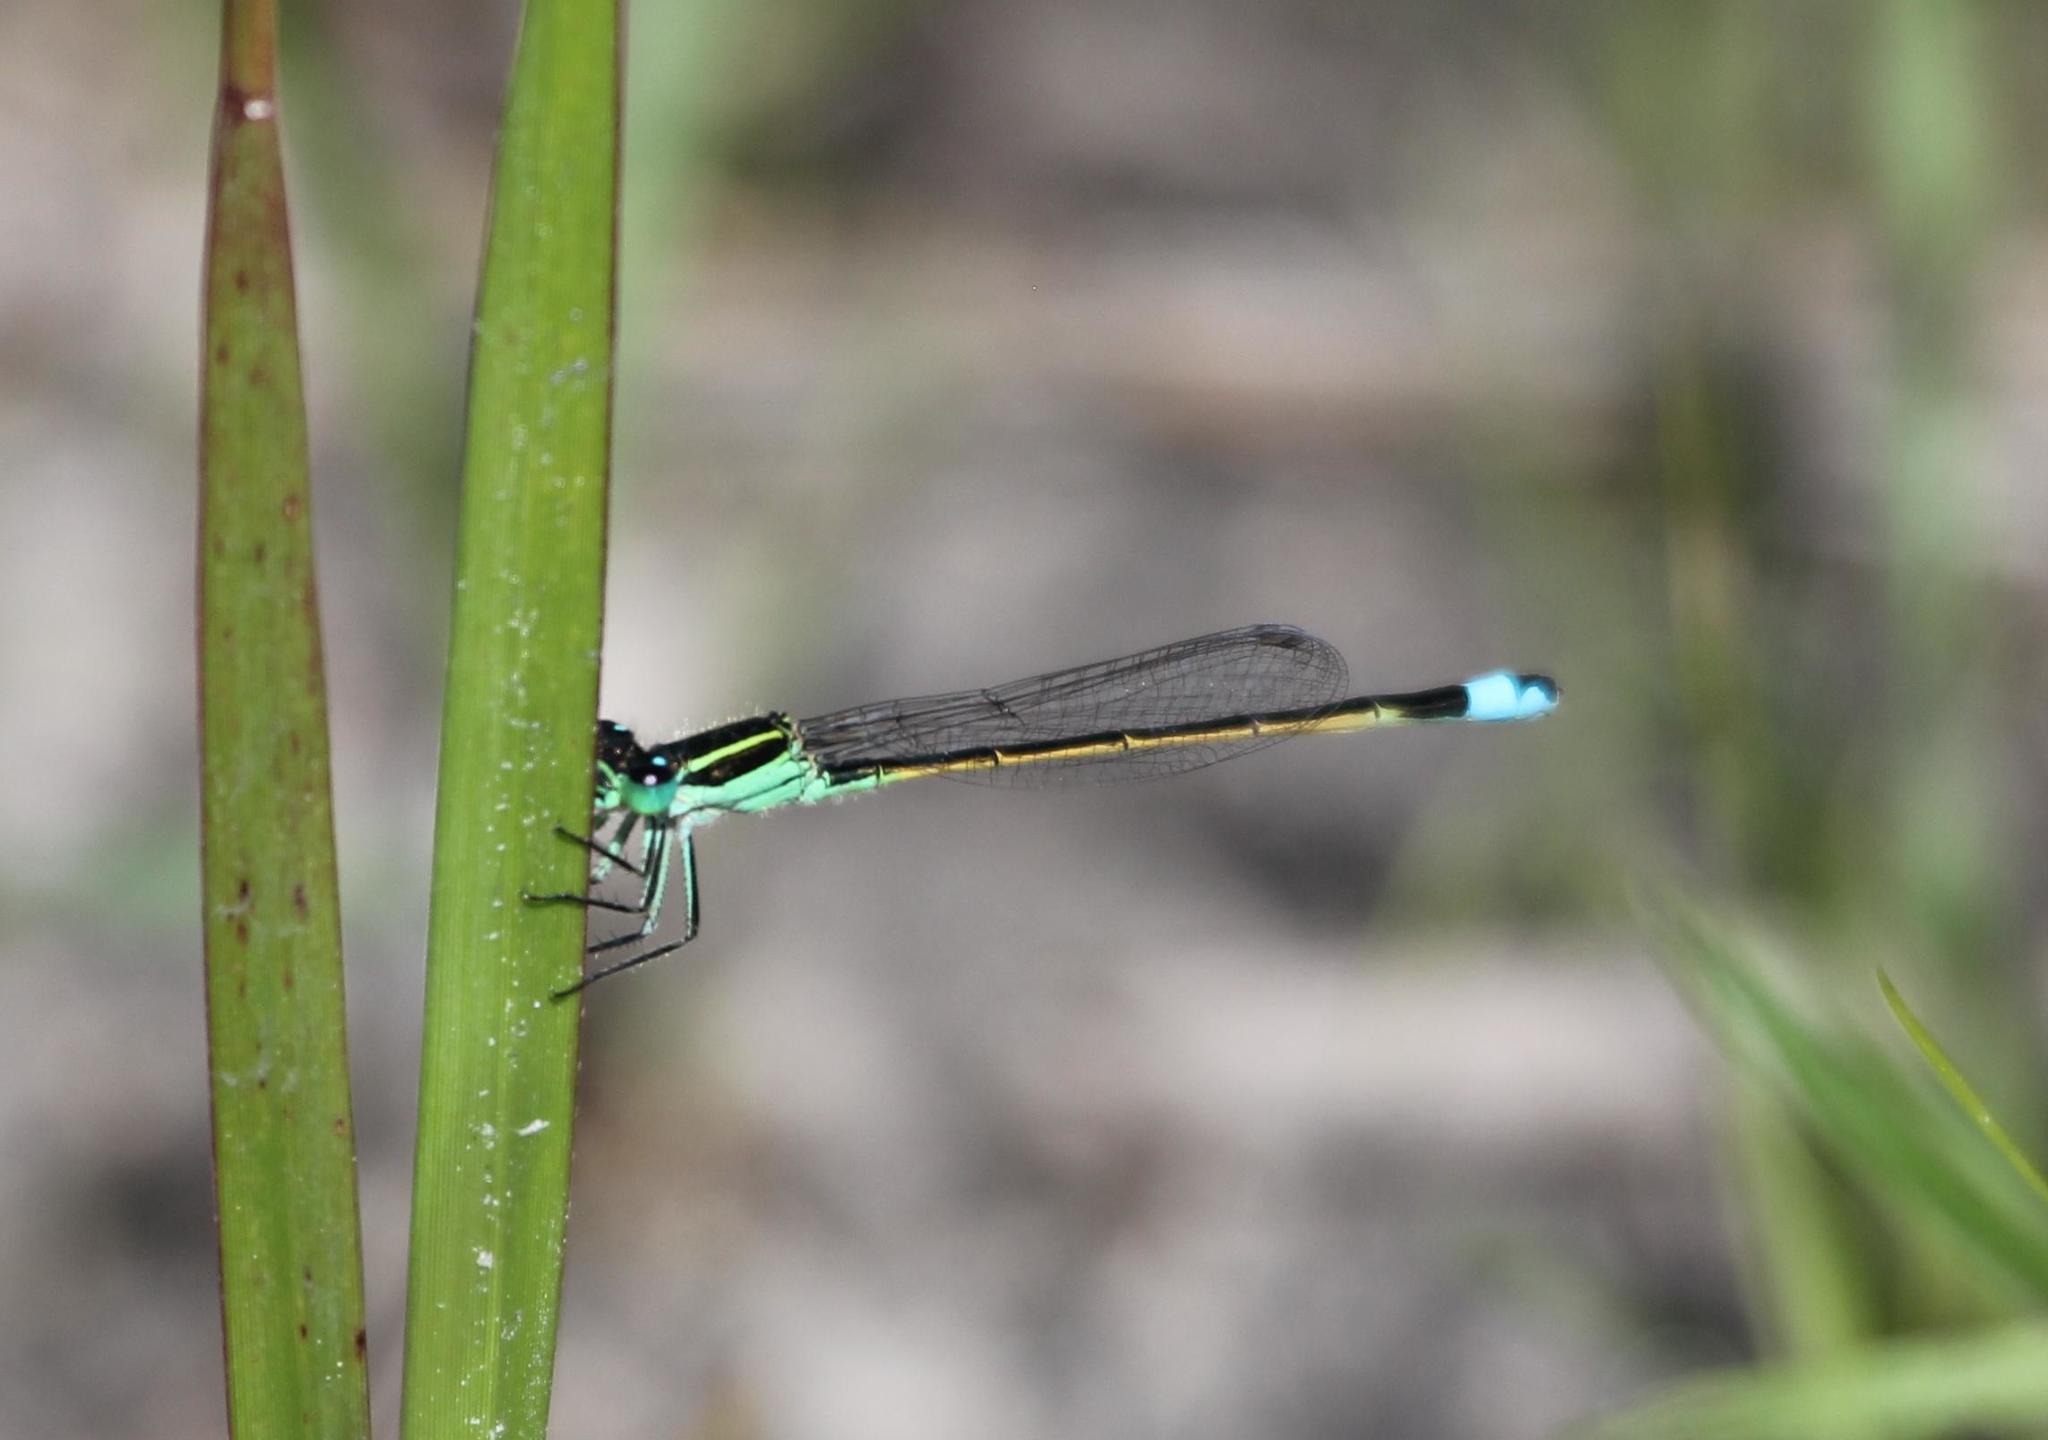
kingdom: Animalia
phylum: Arthropoda
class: Insecta
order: Odonata
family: Coenagrionidae
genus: Ischnura
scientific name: Ischnura ramburii
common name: Rambur's forktail
